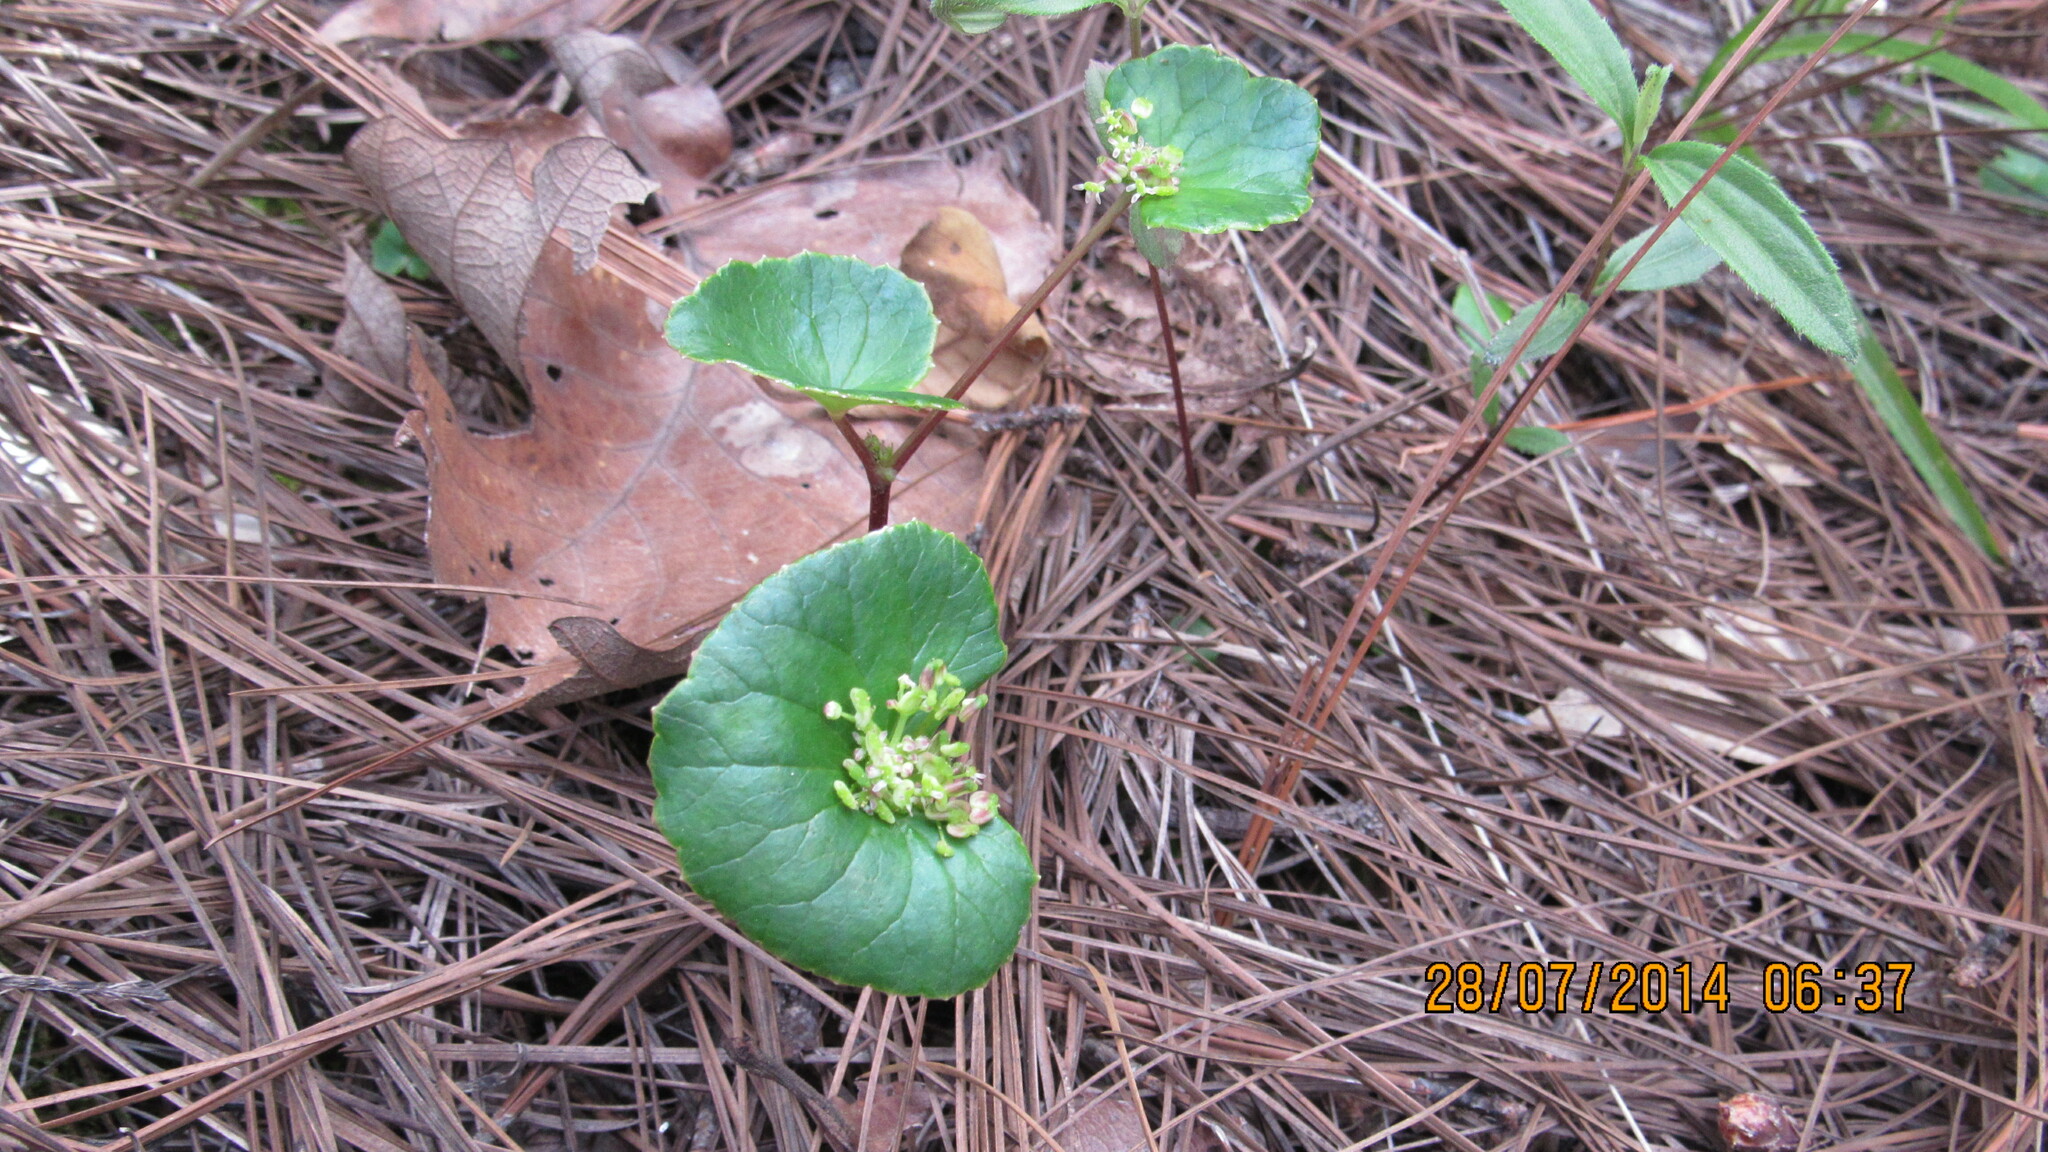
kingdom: Plantae
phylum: Tracheophyta
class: Magnoliopsida
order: Apiales
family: Apiaceae
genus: Micropleura
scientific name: Micropleura renifolia
